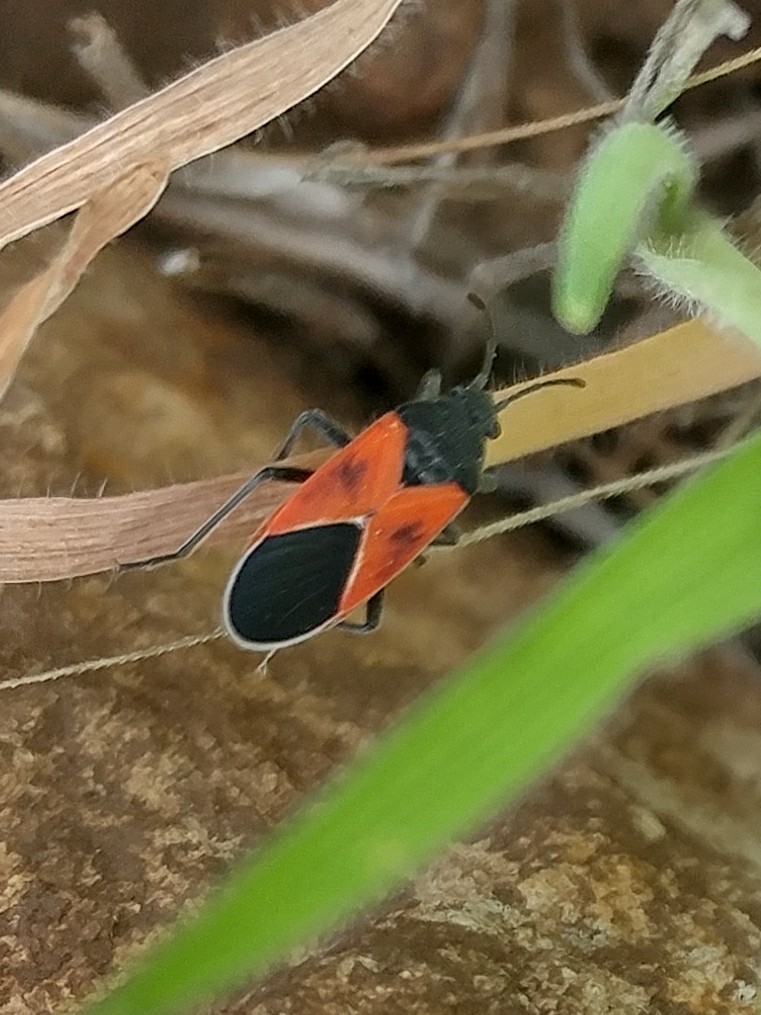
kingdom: Animalia
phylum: Arthropoda
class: Insecta
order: Hemiptera
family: Lygaeidae
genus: Melanopleurus
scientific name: Melanopleurus fuscosus
